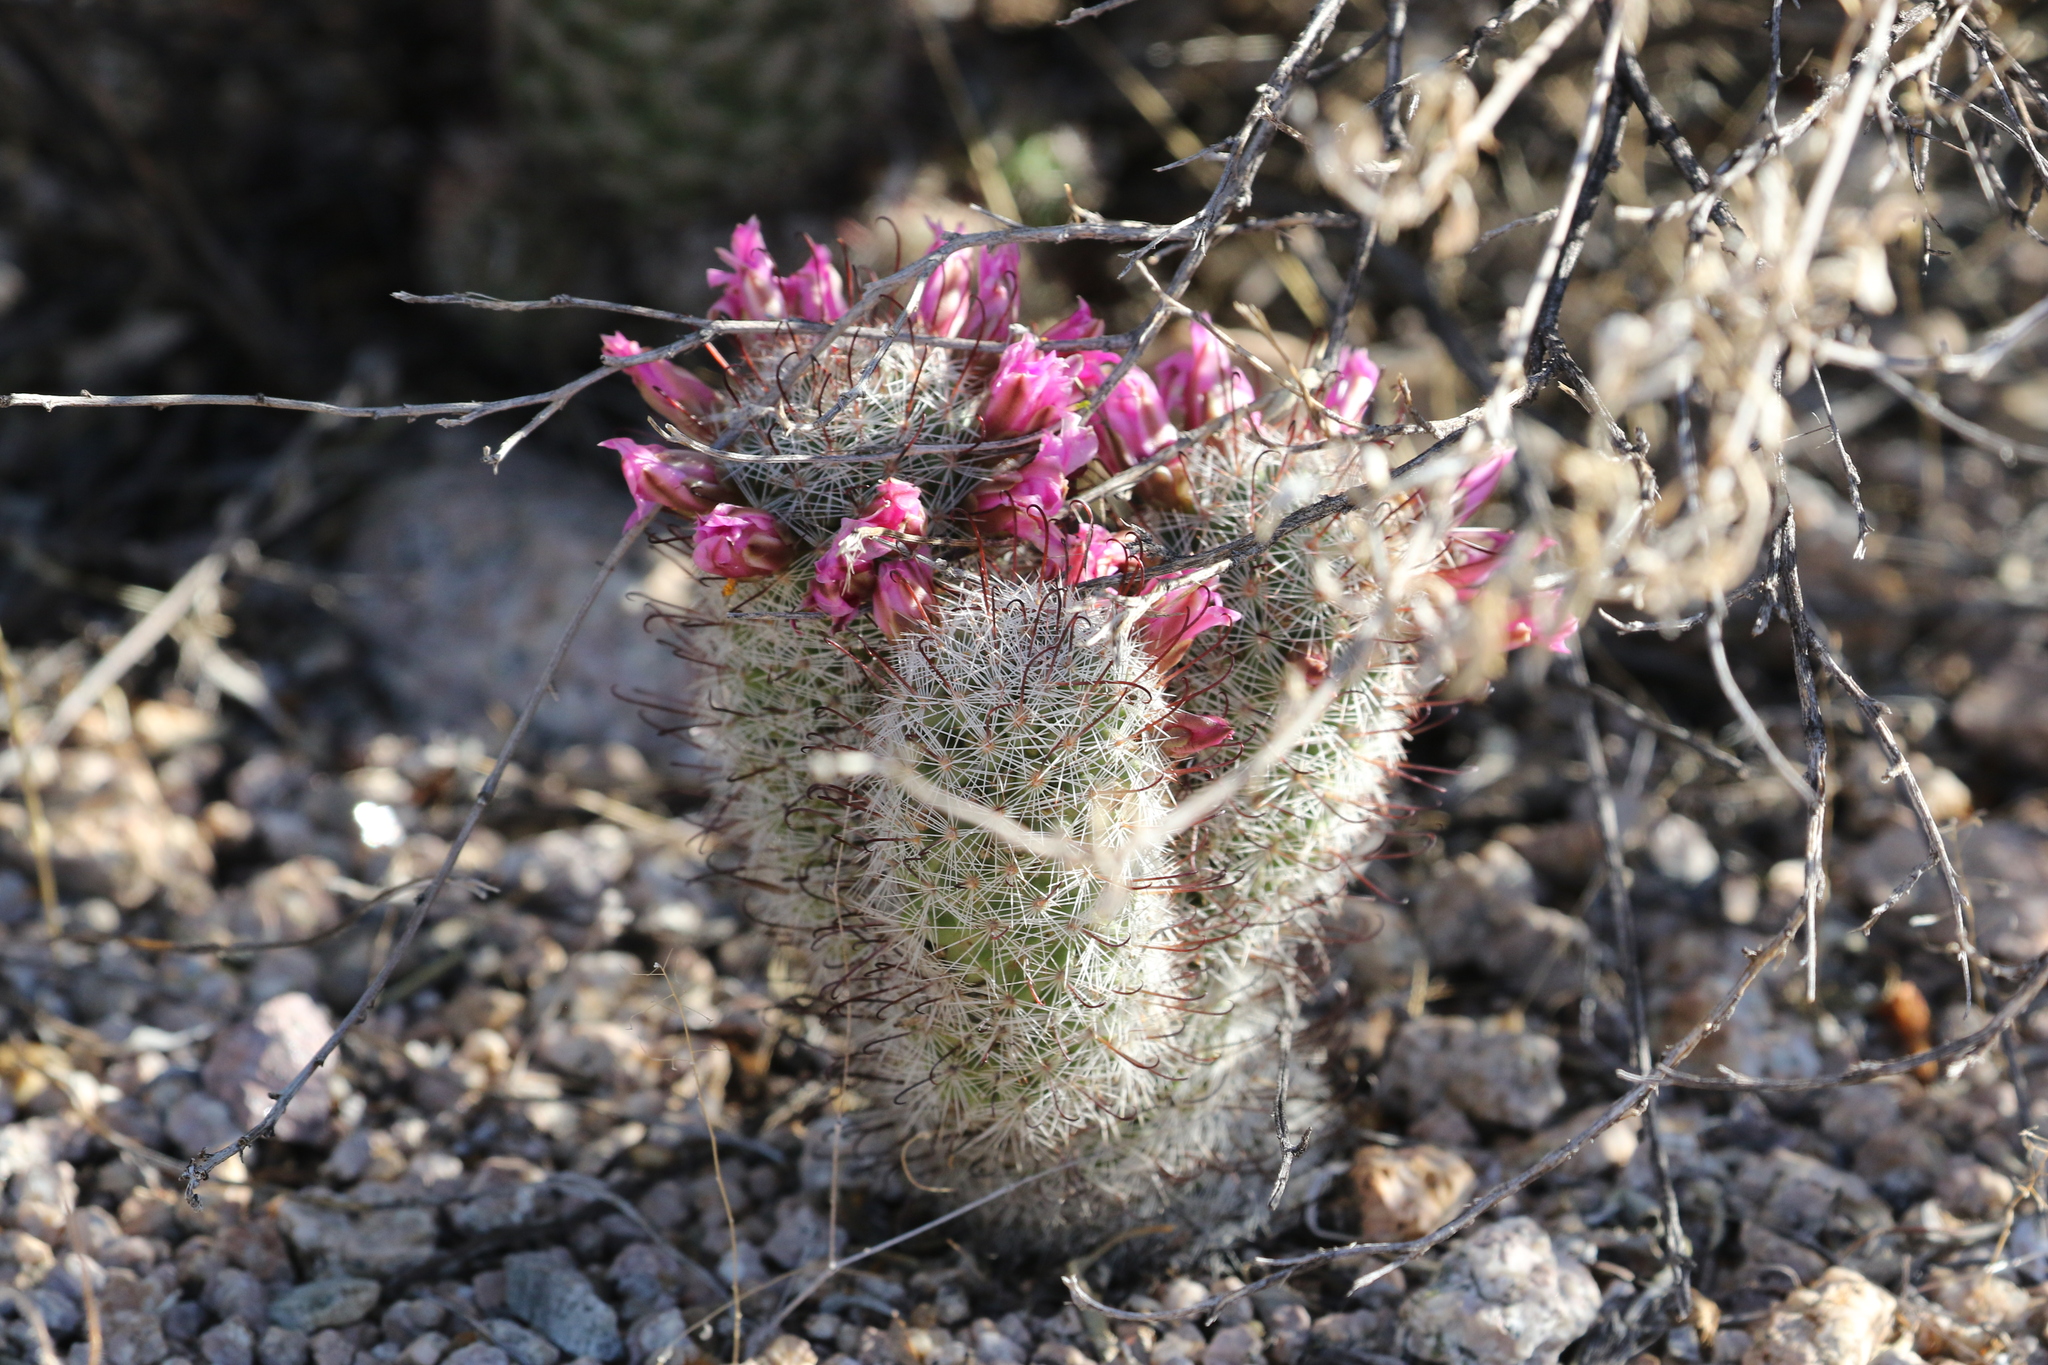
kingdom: Plantae
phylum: Tracheophyta
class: Magnoliopsida
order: Caryophyllales
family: Cactaceae
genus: Cochemiea
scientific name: Cochemiea grahamii
